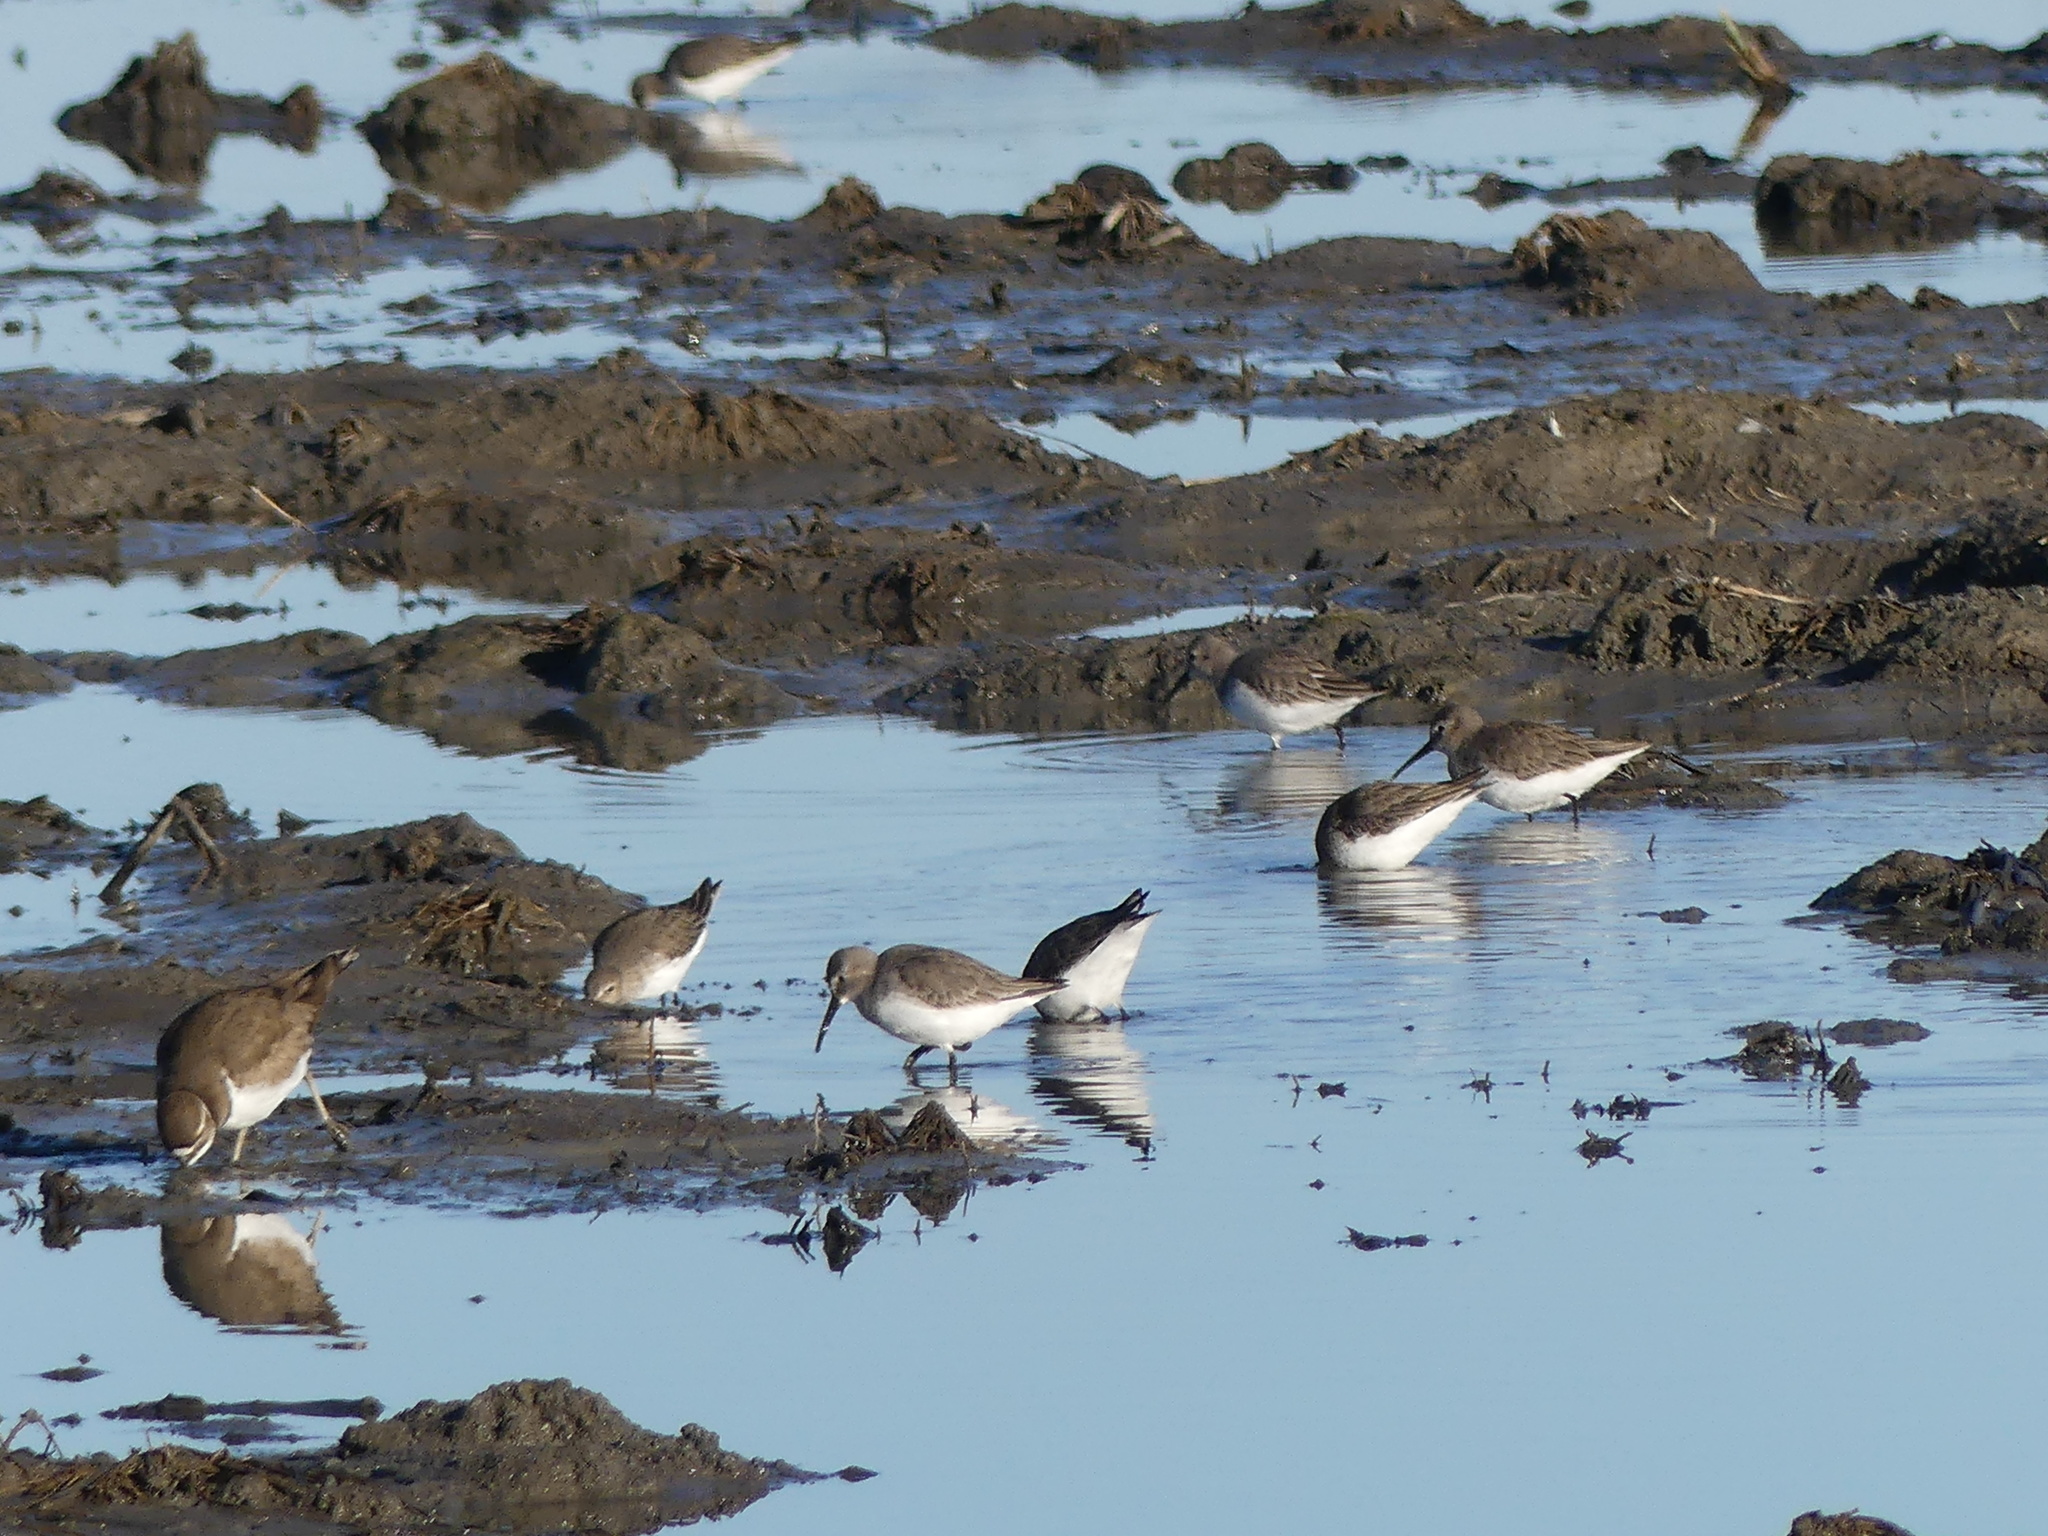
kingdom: Animalia
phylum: Chordata
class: Aves
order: Charadriiformes
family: Scolopacidae
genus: Calidris
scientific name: Calidris alpina
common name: Dunlin
